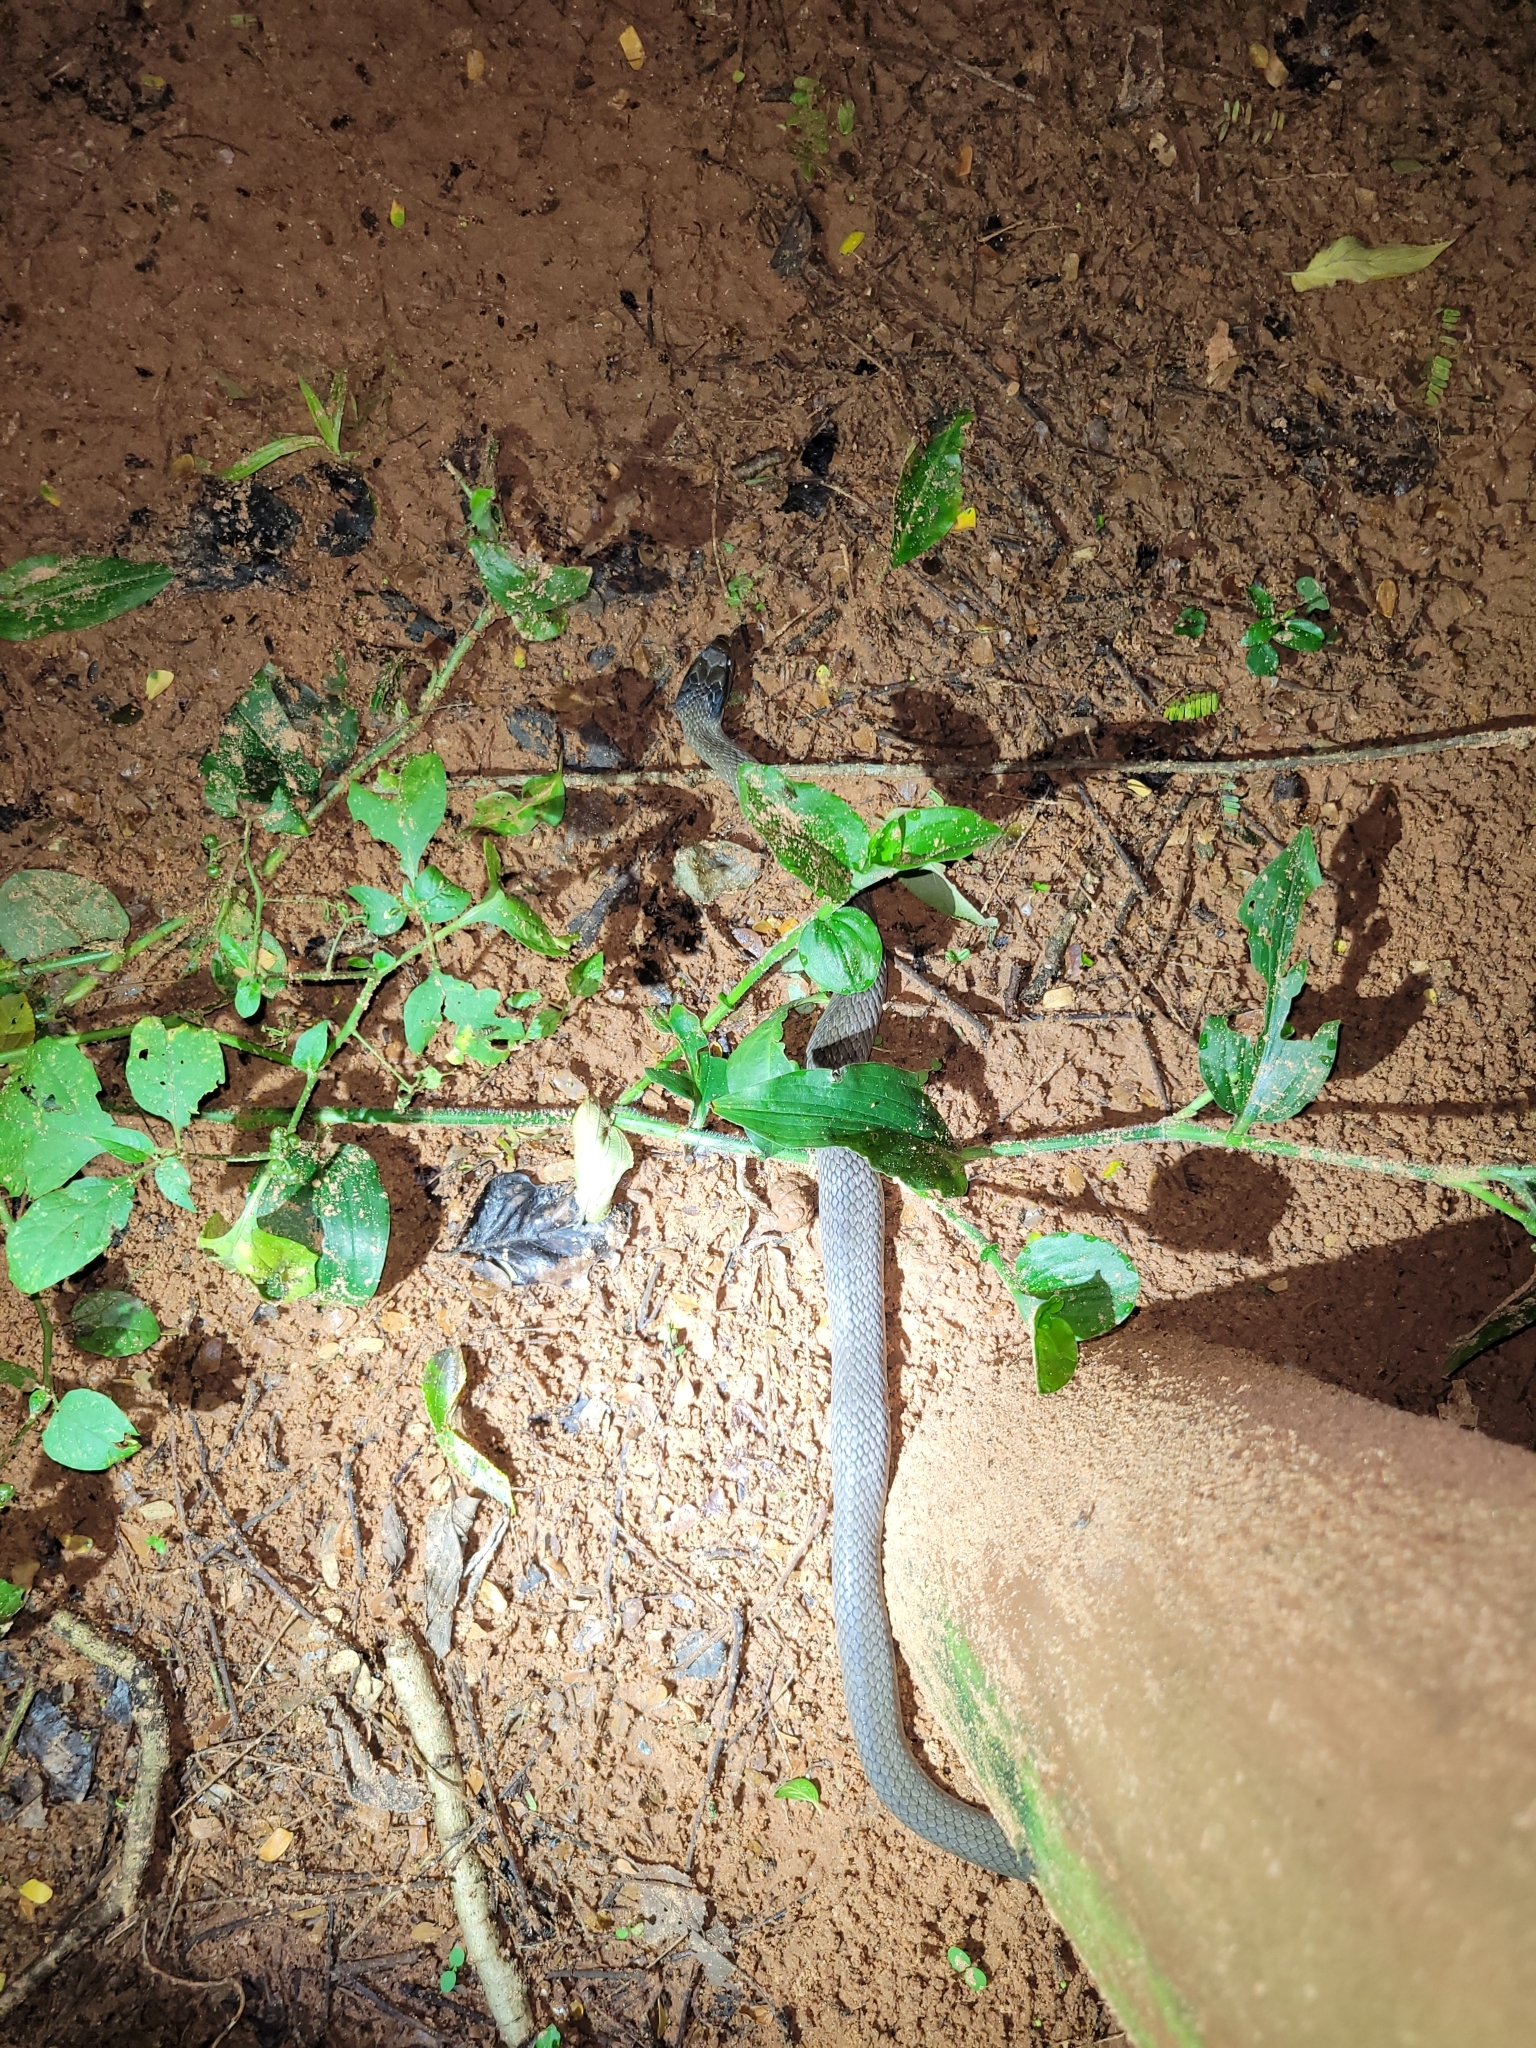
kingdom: Animalia
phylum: Chordata
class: Squamata
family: Colubridae
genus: Crotaphopeltis
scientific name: Crotaphopeltis hotamboeia
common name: Red-lipped snake
